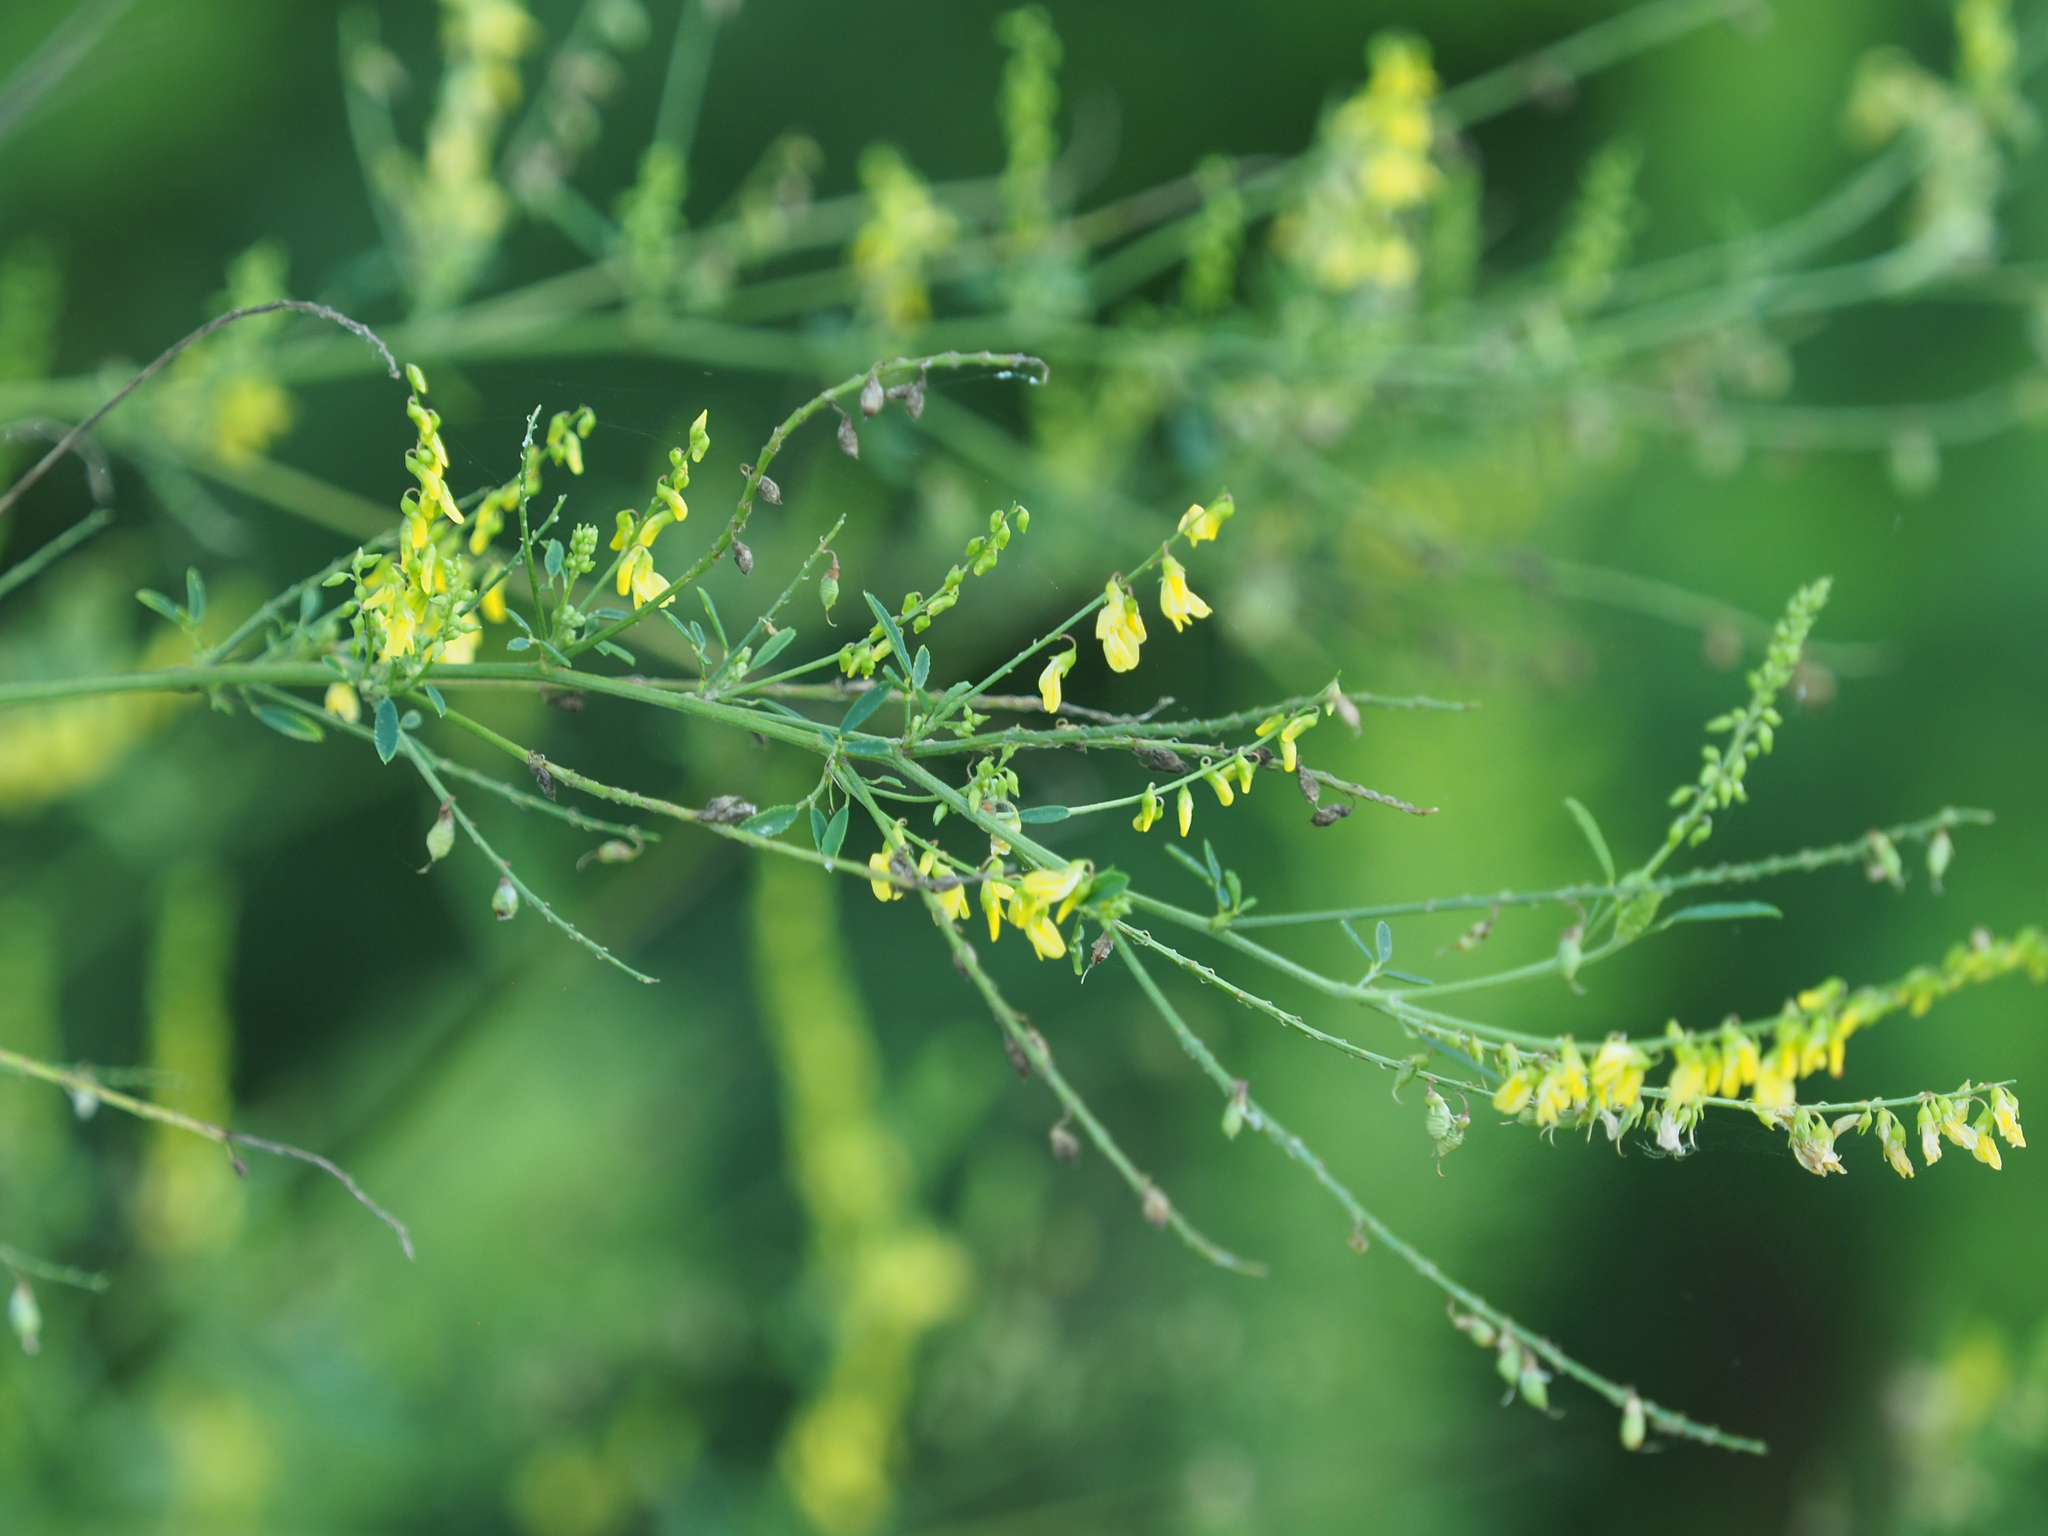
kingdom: Plantae
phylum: Tracheophyta
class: Magnoliopsida
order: Fabales
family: Fabaceae
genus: Melilotus
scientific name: Melilotus officinalis
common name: Sweetclover
